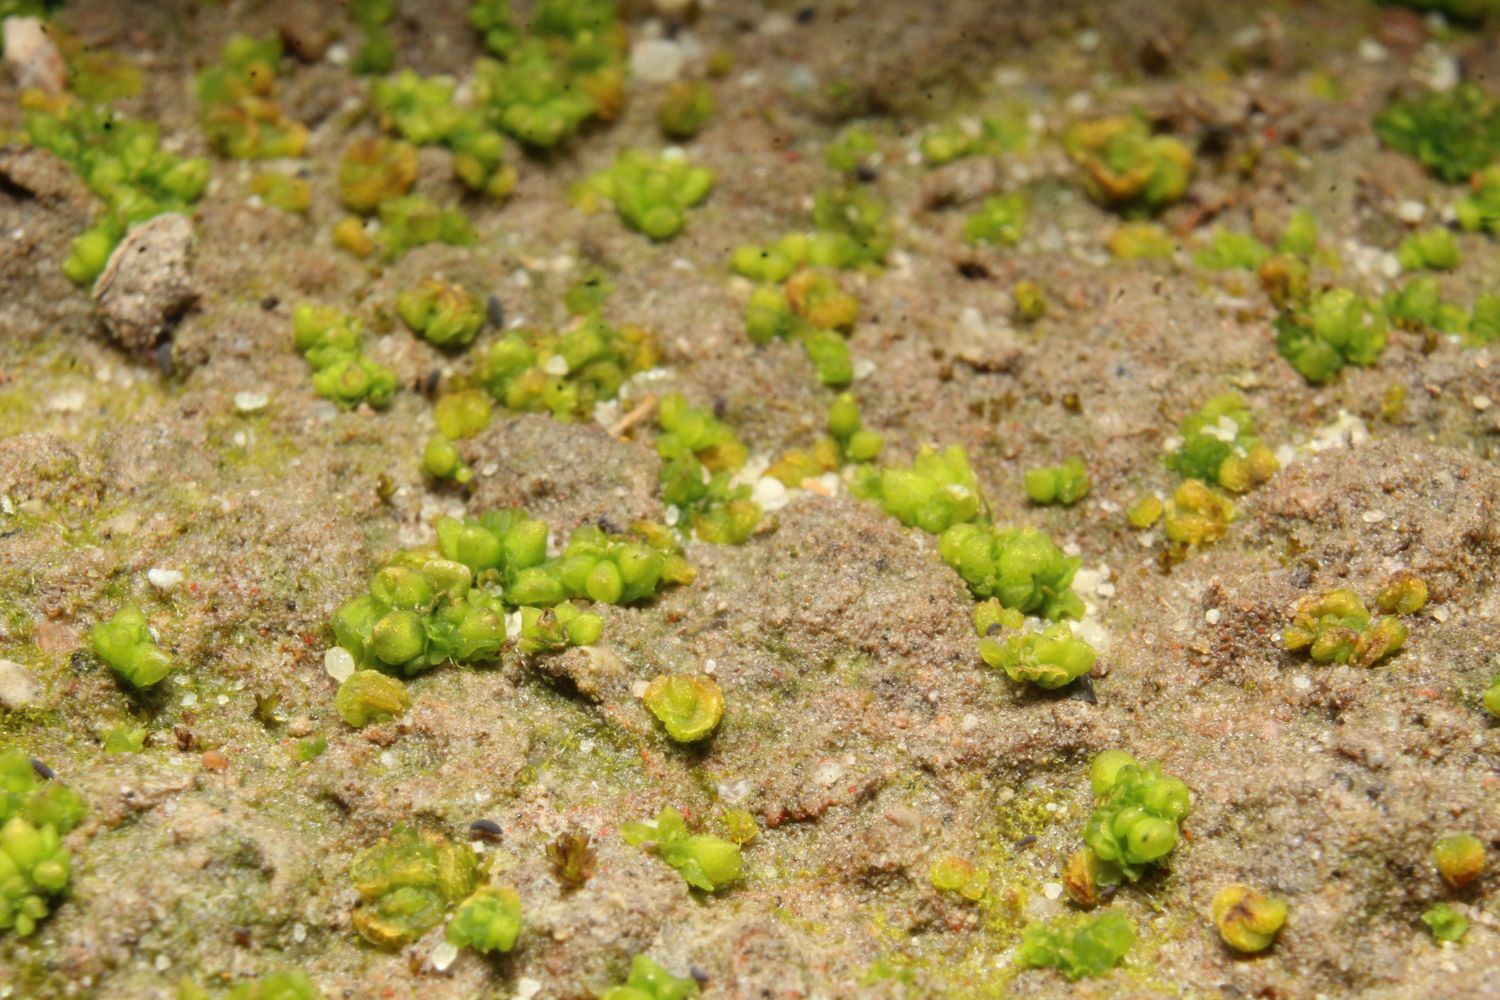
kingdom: Plantae
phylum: Marchantiophyta
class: Marchantiopsida
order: Sphaerocarpales
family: Riellaceae
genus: Austroriella
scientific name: Austroriella salta
